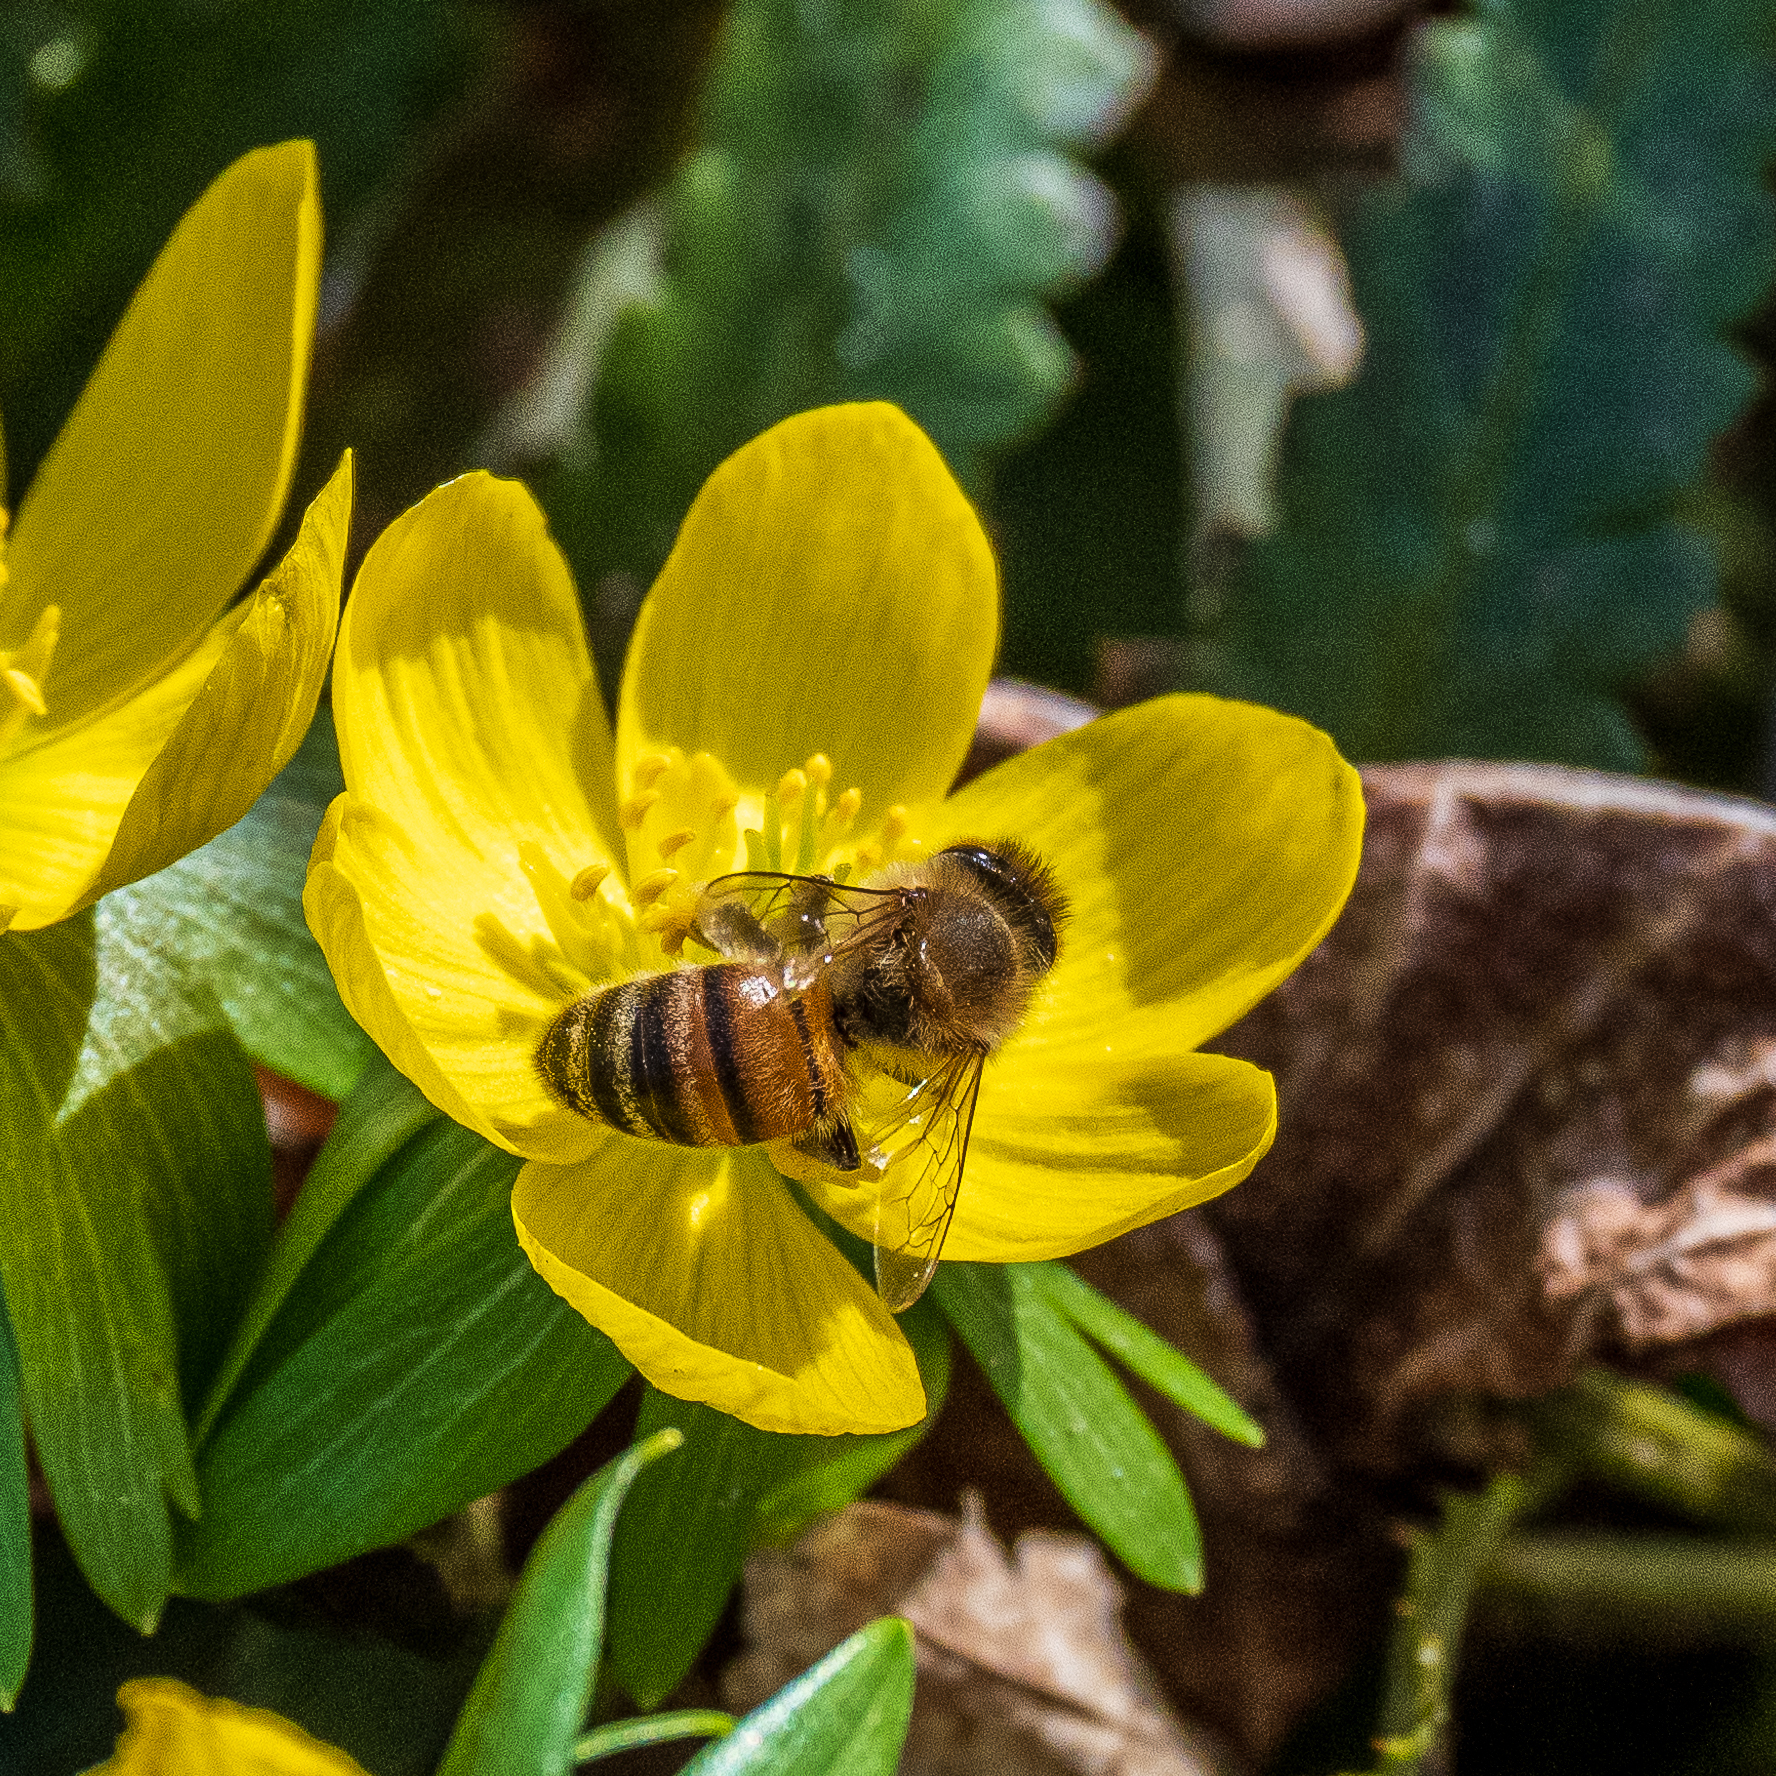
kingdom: Animalia
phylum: Arthropoda
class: Insecta
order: Hymenoptera
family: Apidae
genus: Apis
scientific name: Apis mellifera
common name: Honey bee
